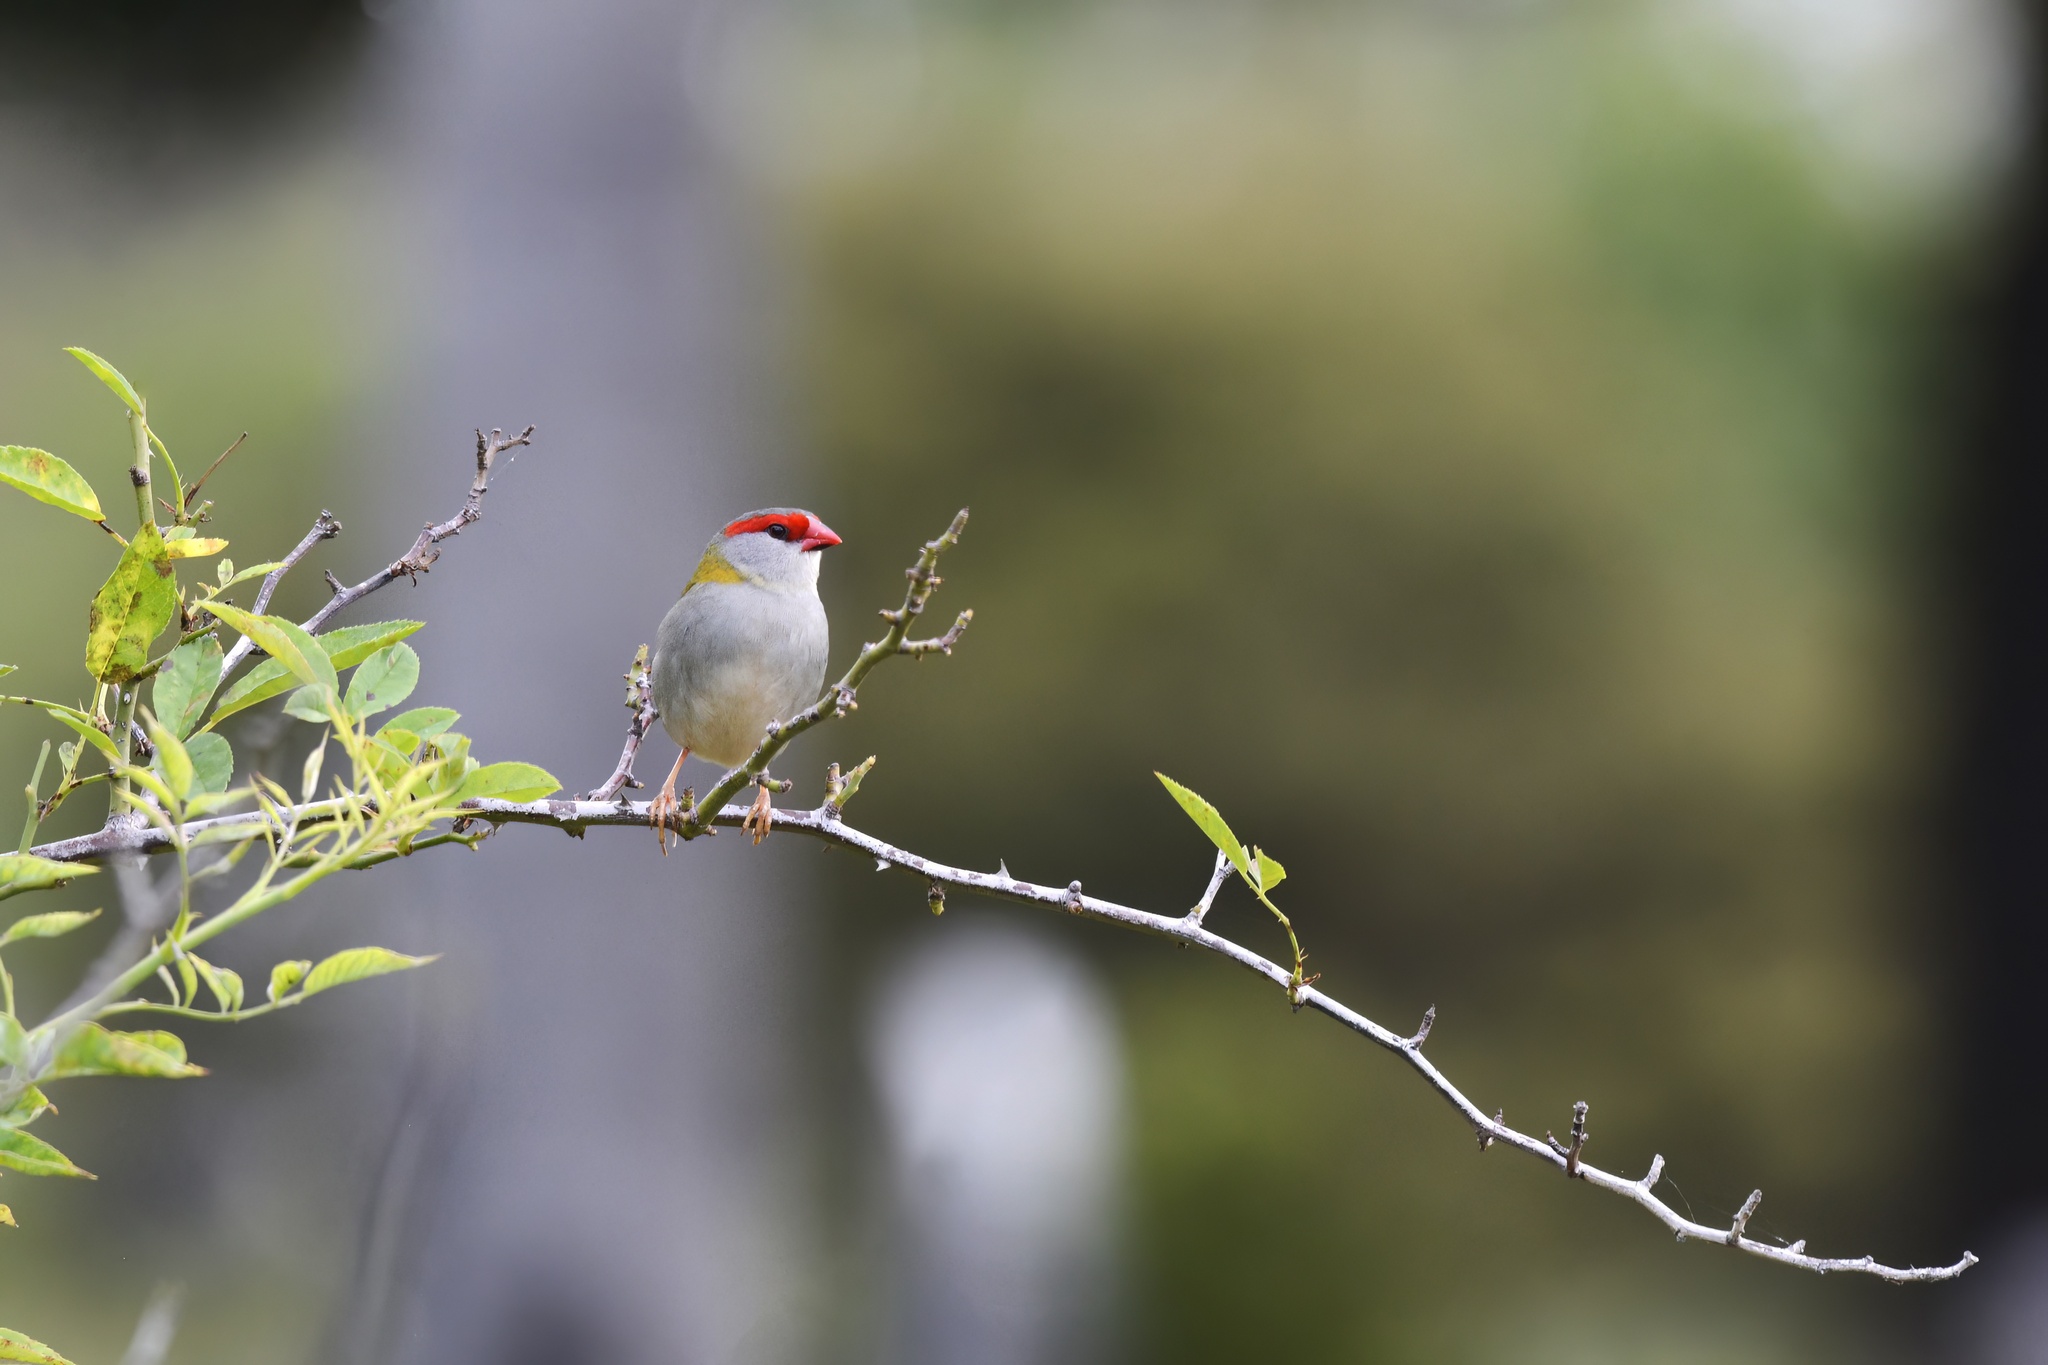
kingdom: Animalia
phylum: Chordata
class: Aves
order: Passeriformes
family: Estrildidae
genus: Neochmia
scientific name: Neochmia temporalis
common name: Red-browed finch
